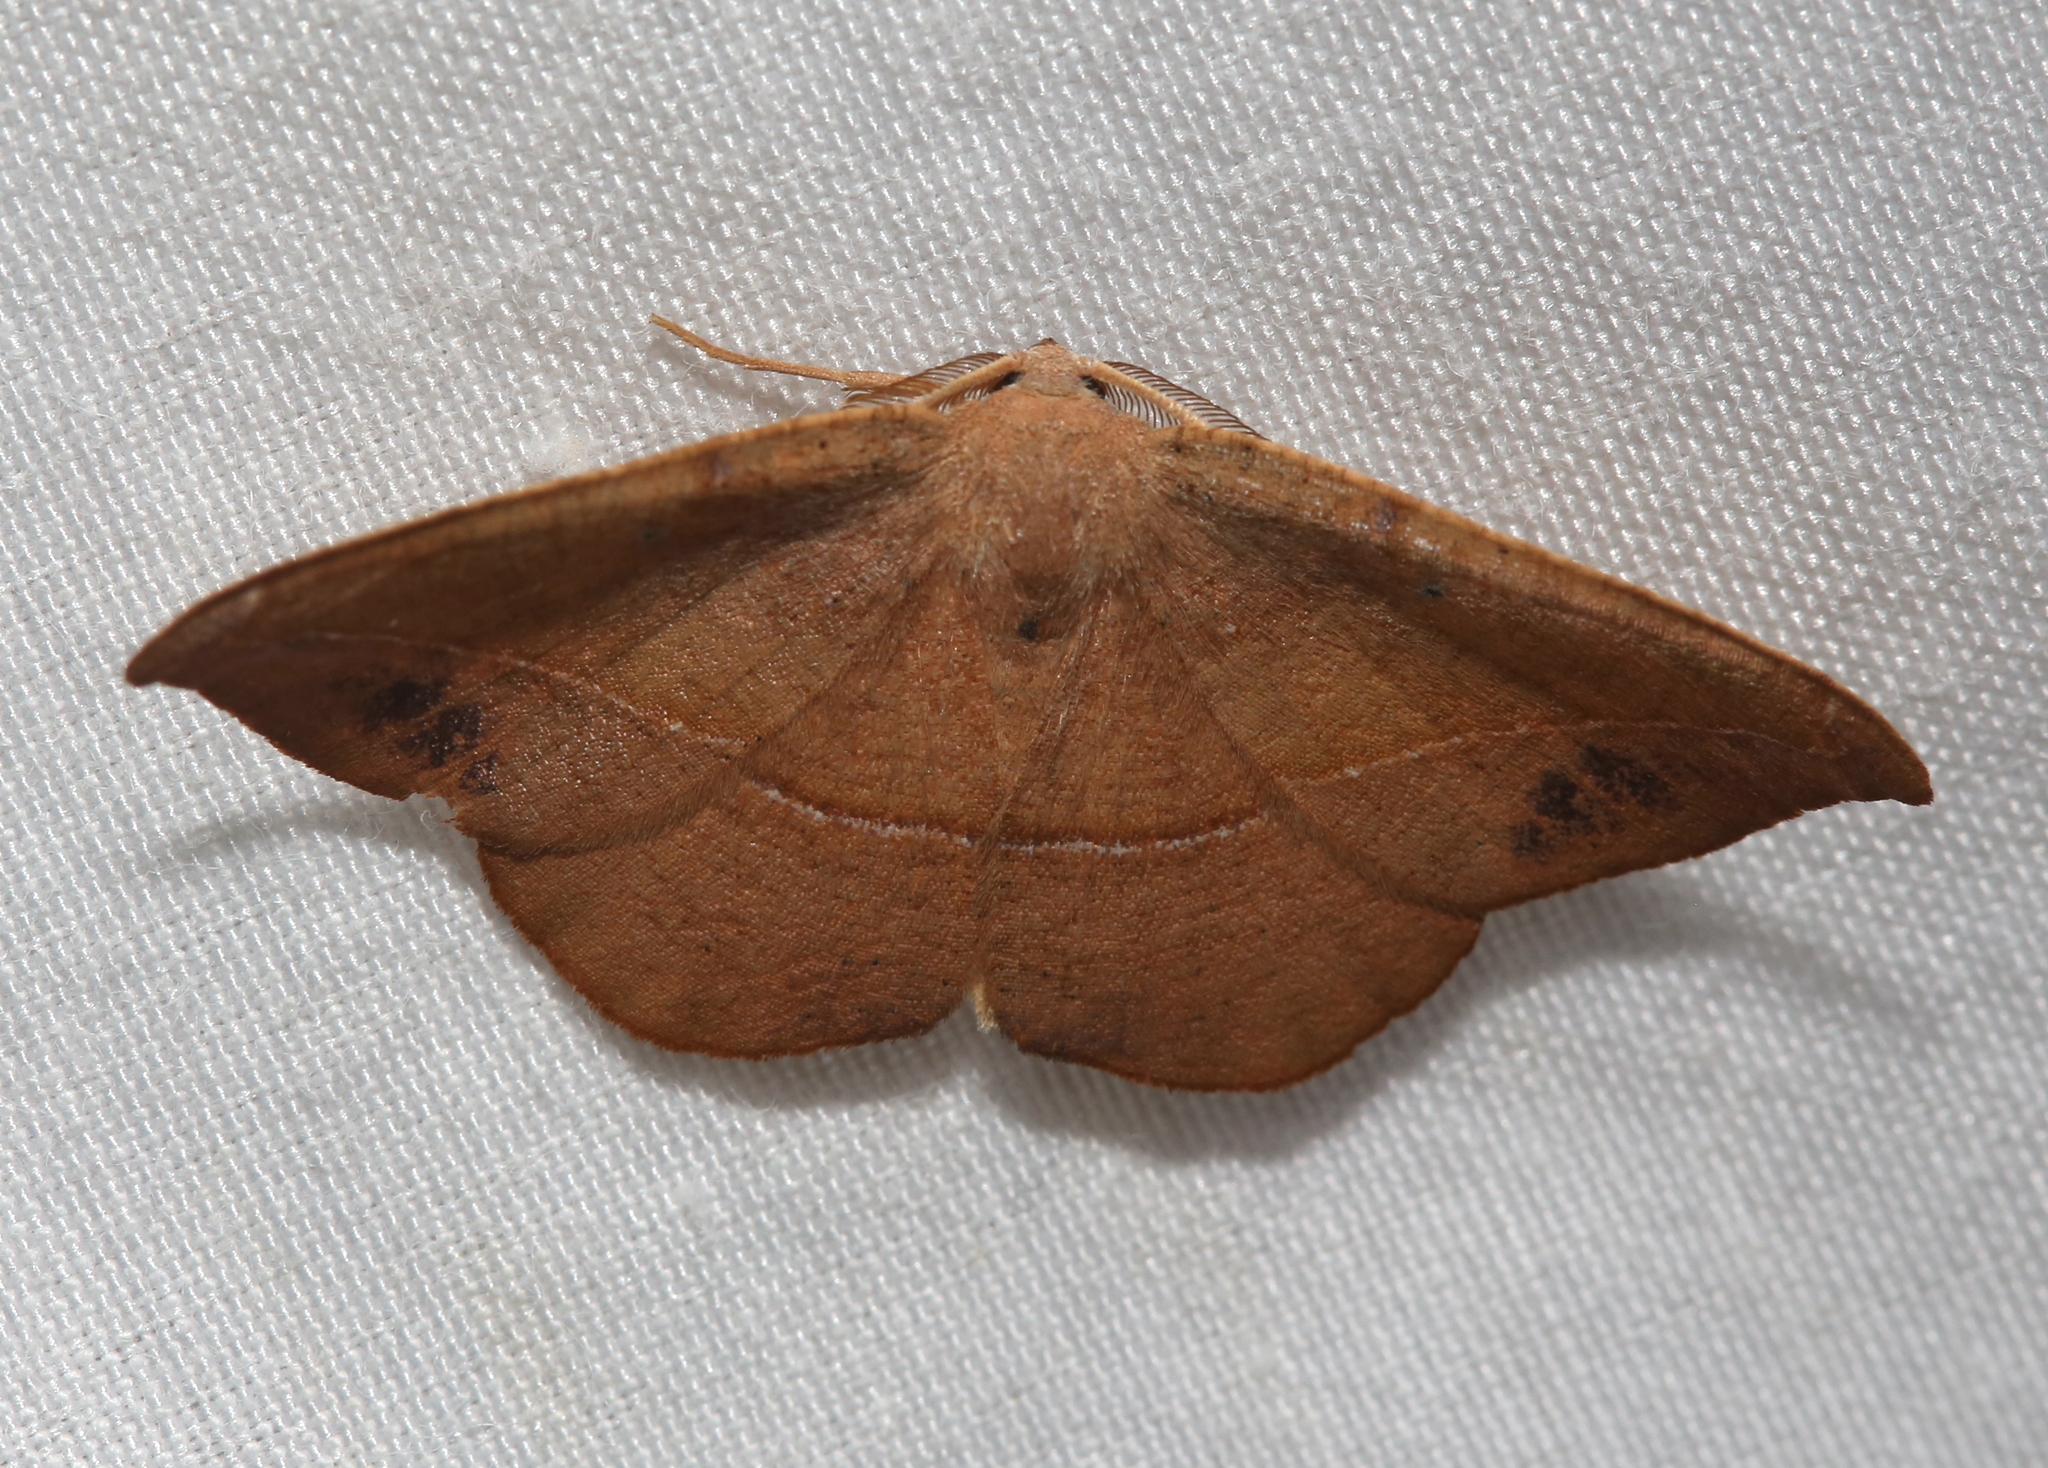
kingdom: Animalia
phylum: Arthropoda
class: Insecta
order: Lepidoptera
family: Geometridae
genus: Patalene
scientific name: Patalene olyzonaria
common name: Juniper geometer moth
